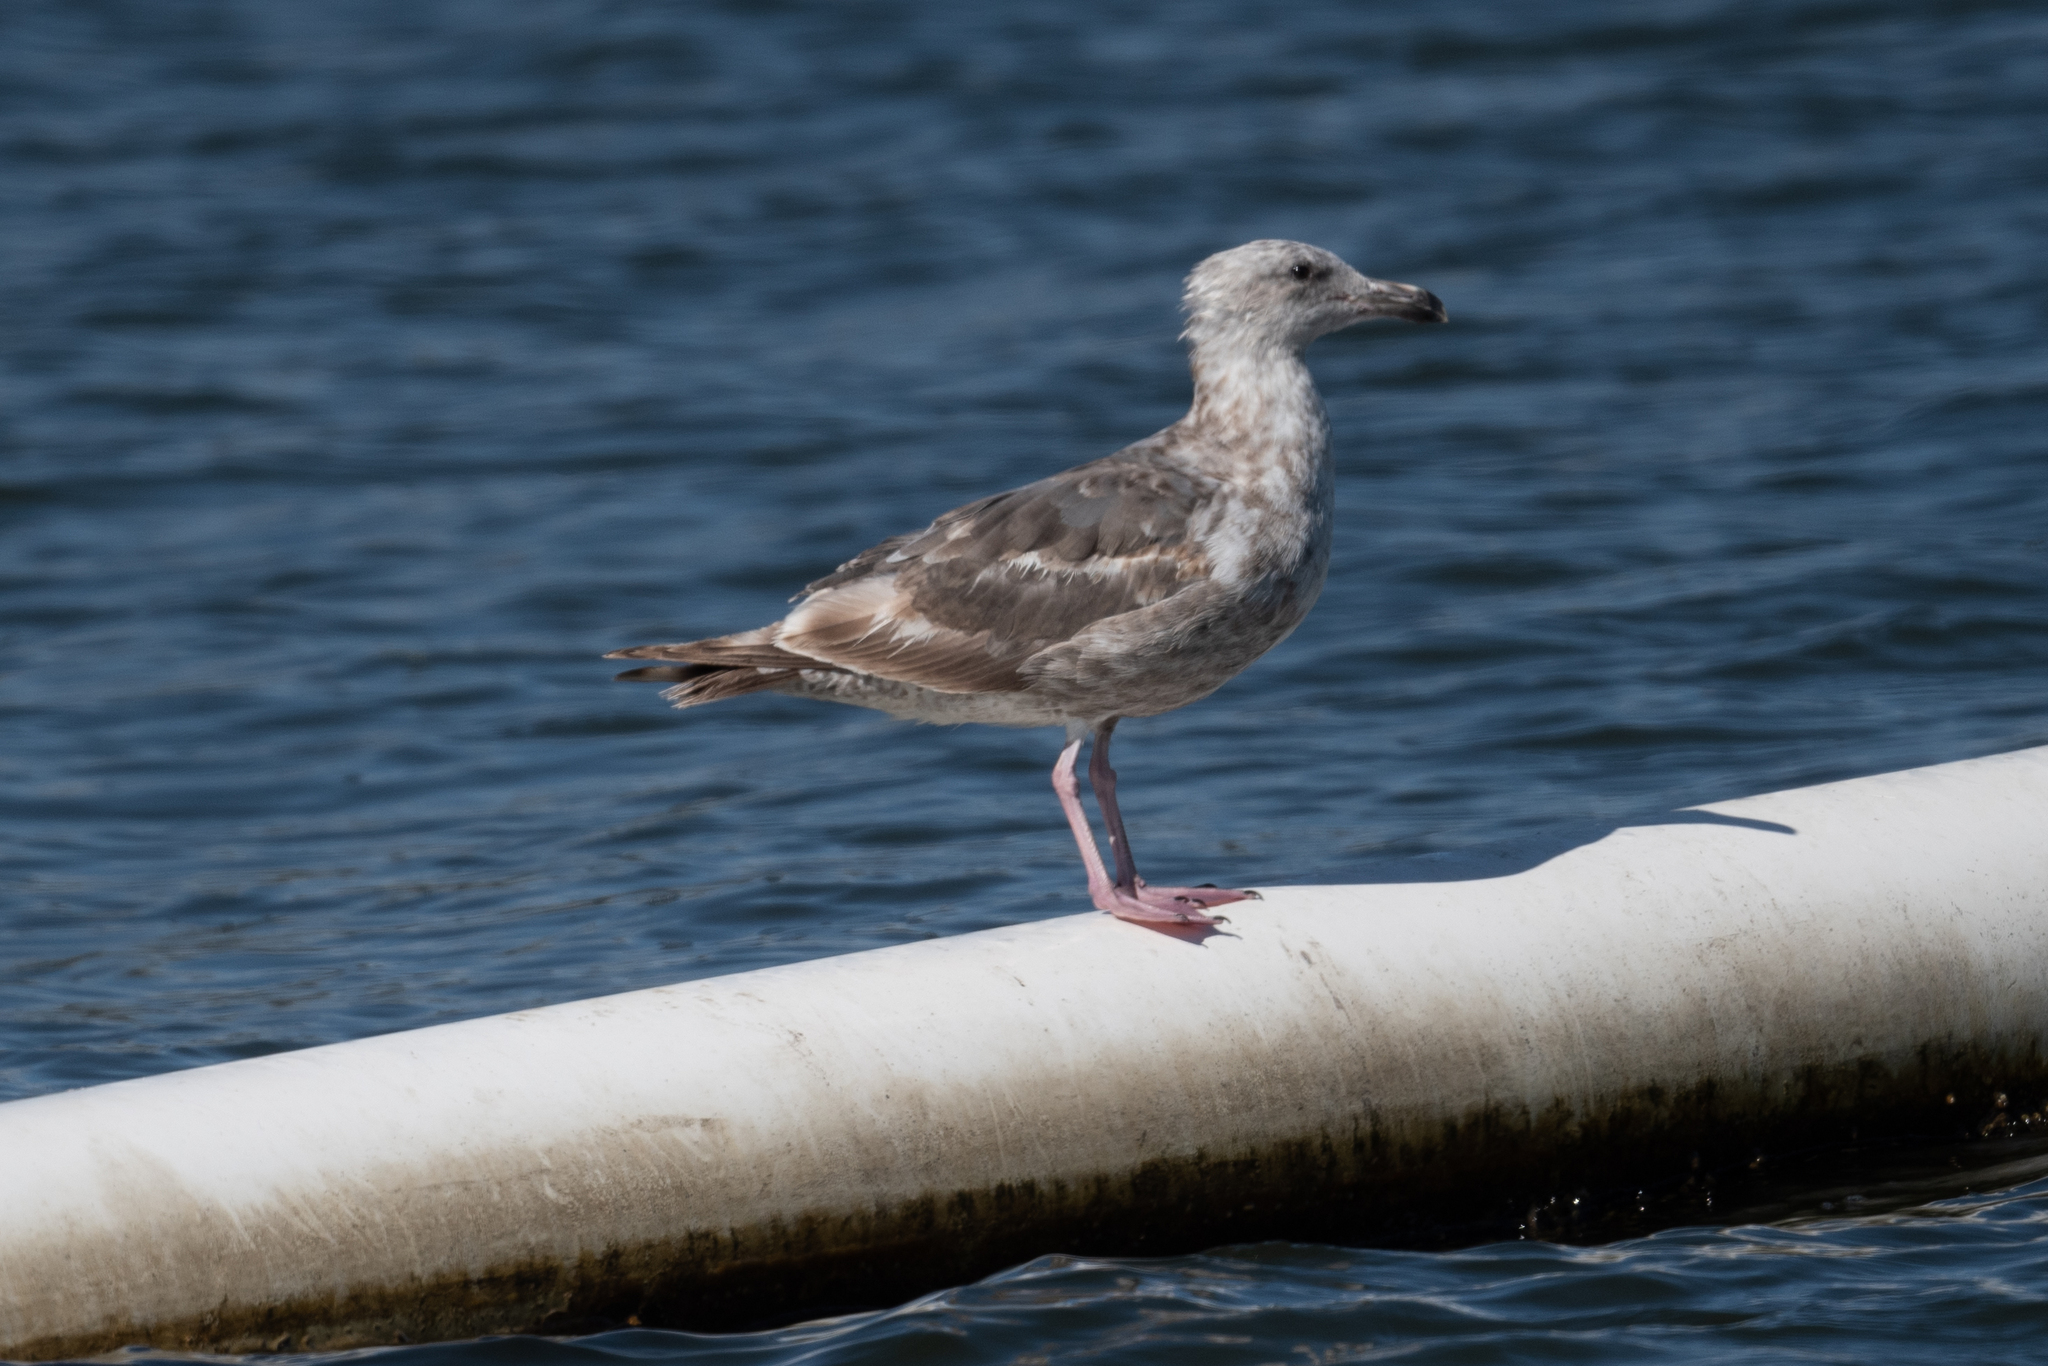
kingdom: Animalia
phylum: Chordata
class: Aves
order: Charadriiformes
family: Laridae
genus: Larus
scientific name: Larus occidentalis
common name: Western gull
